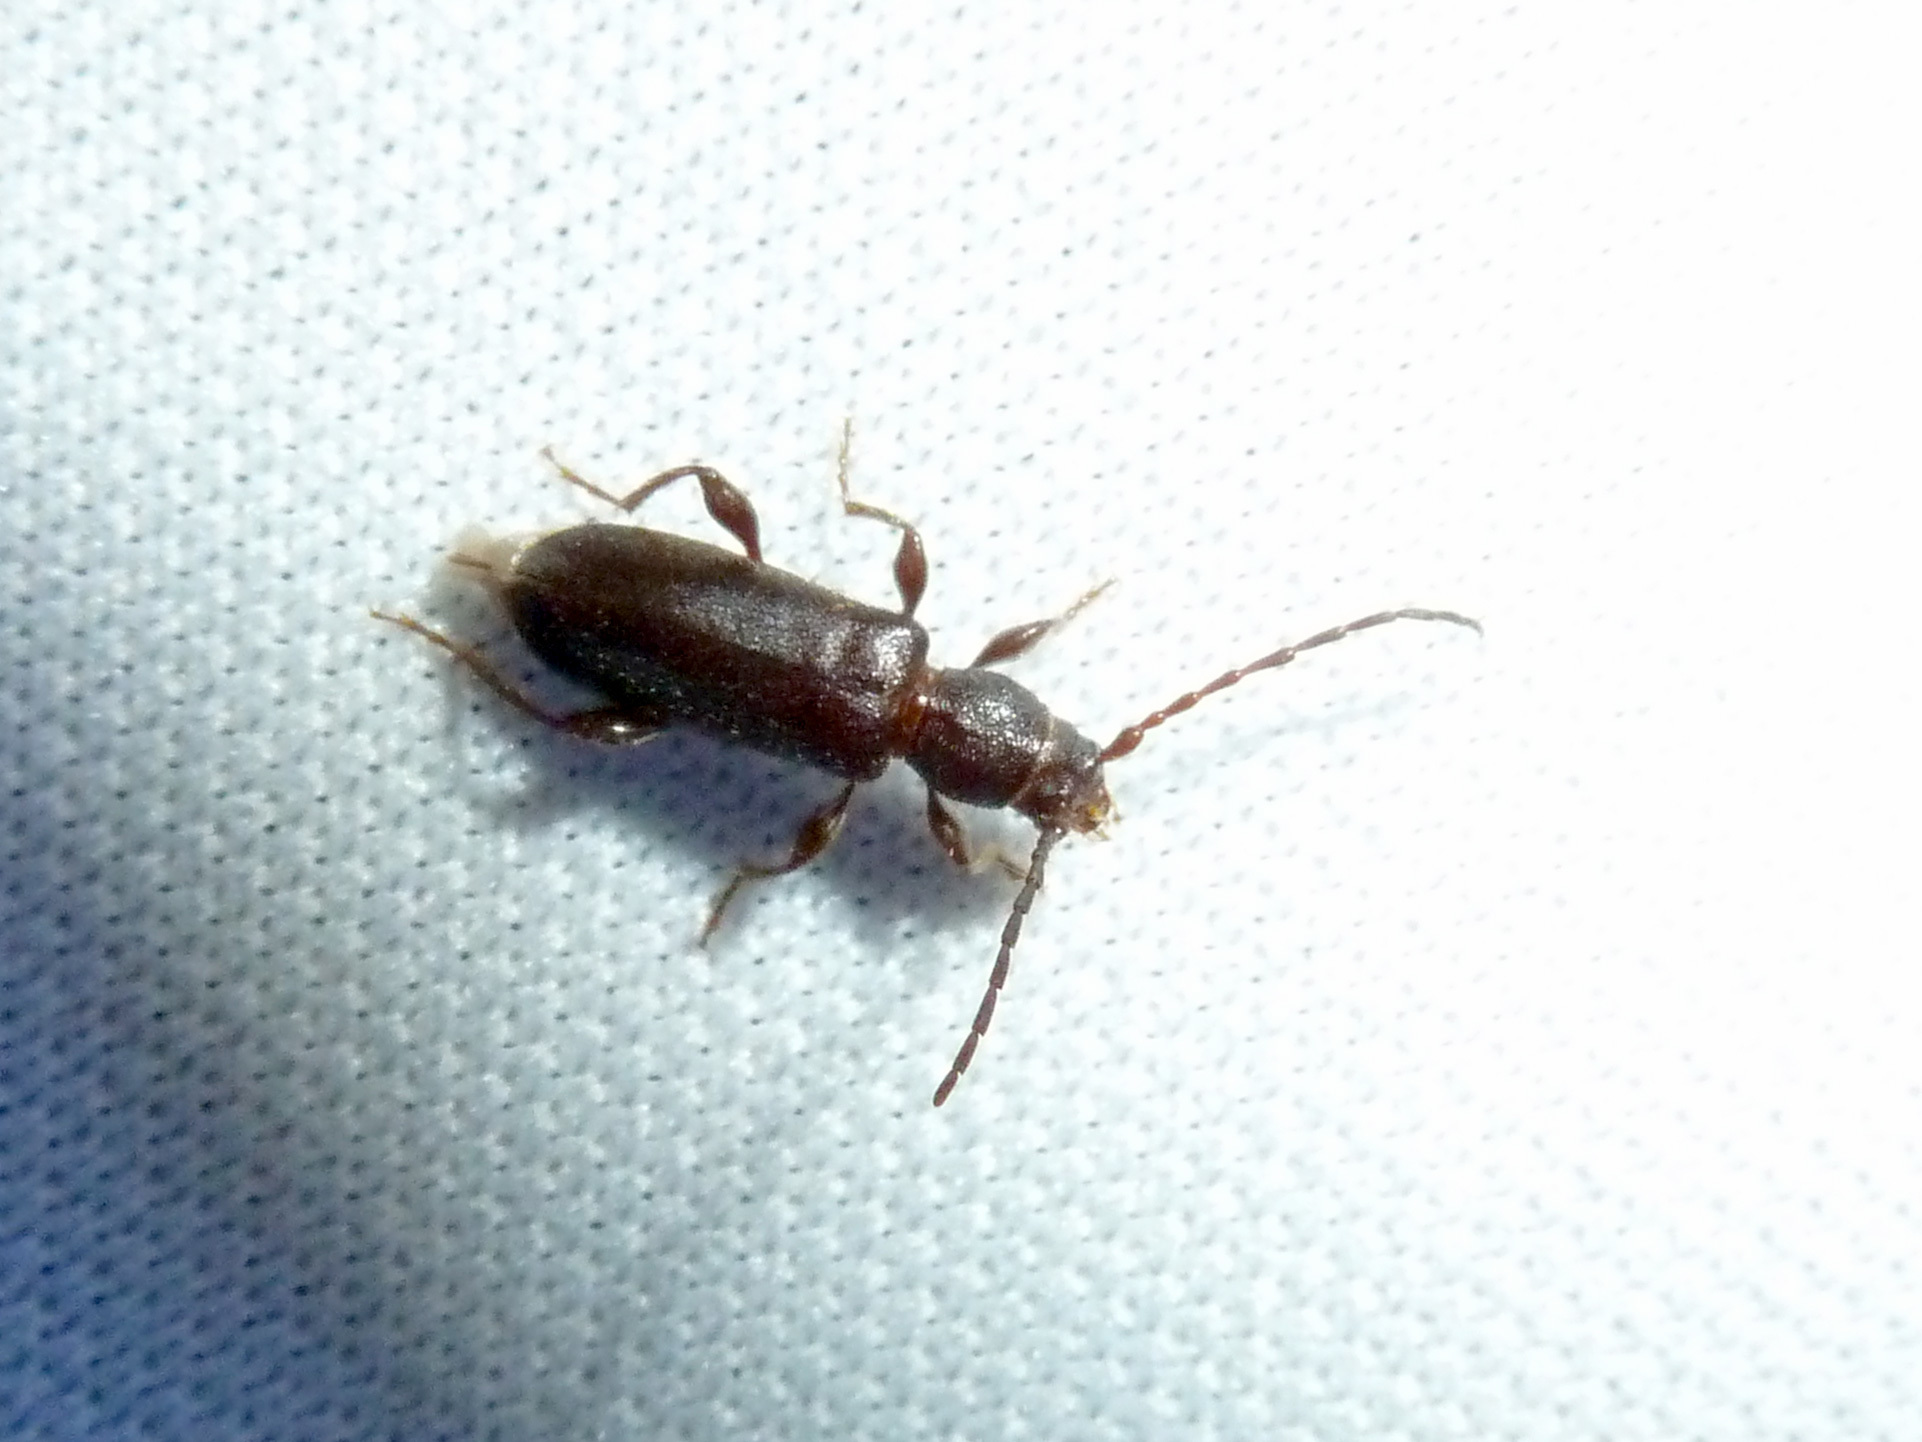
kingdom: Animalia
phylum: Arthropoda
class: Insecta
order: Coleoptera
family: Cerambycidae
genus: Phymatodes
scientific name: Phymatodes grandis
